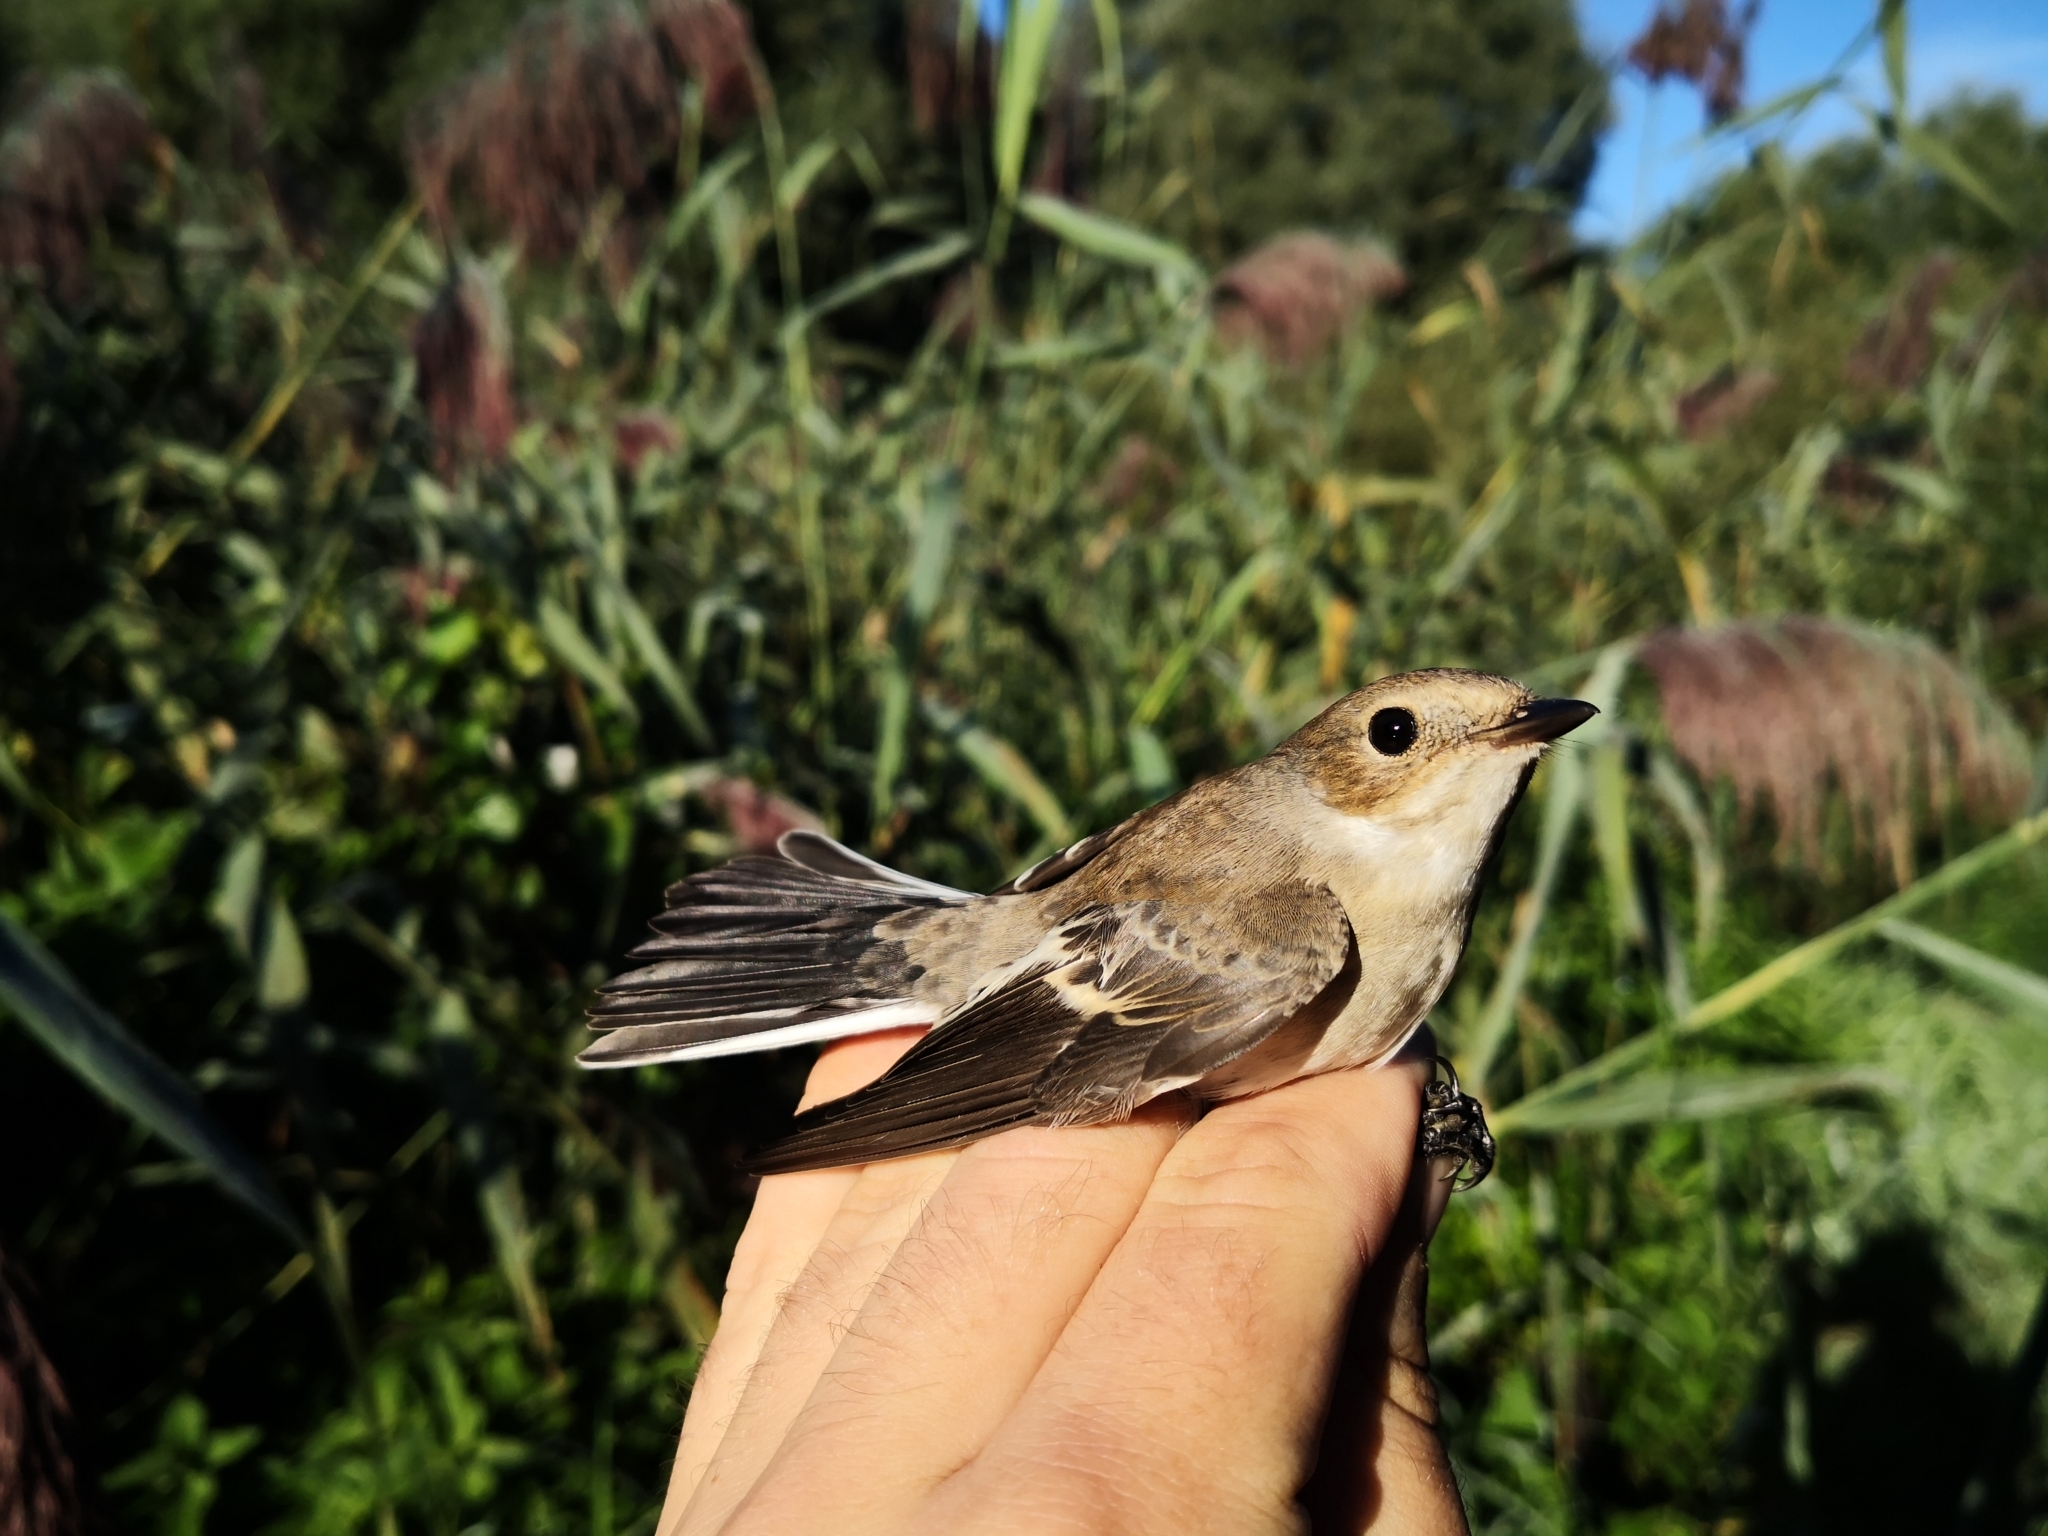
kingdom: Animalia
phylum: Chordata
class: Aves
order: Passeriformes
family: Muscicapidae
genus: Ficedula
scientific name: Ficedula hypoleuca
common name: European pied flycatcher
